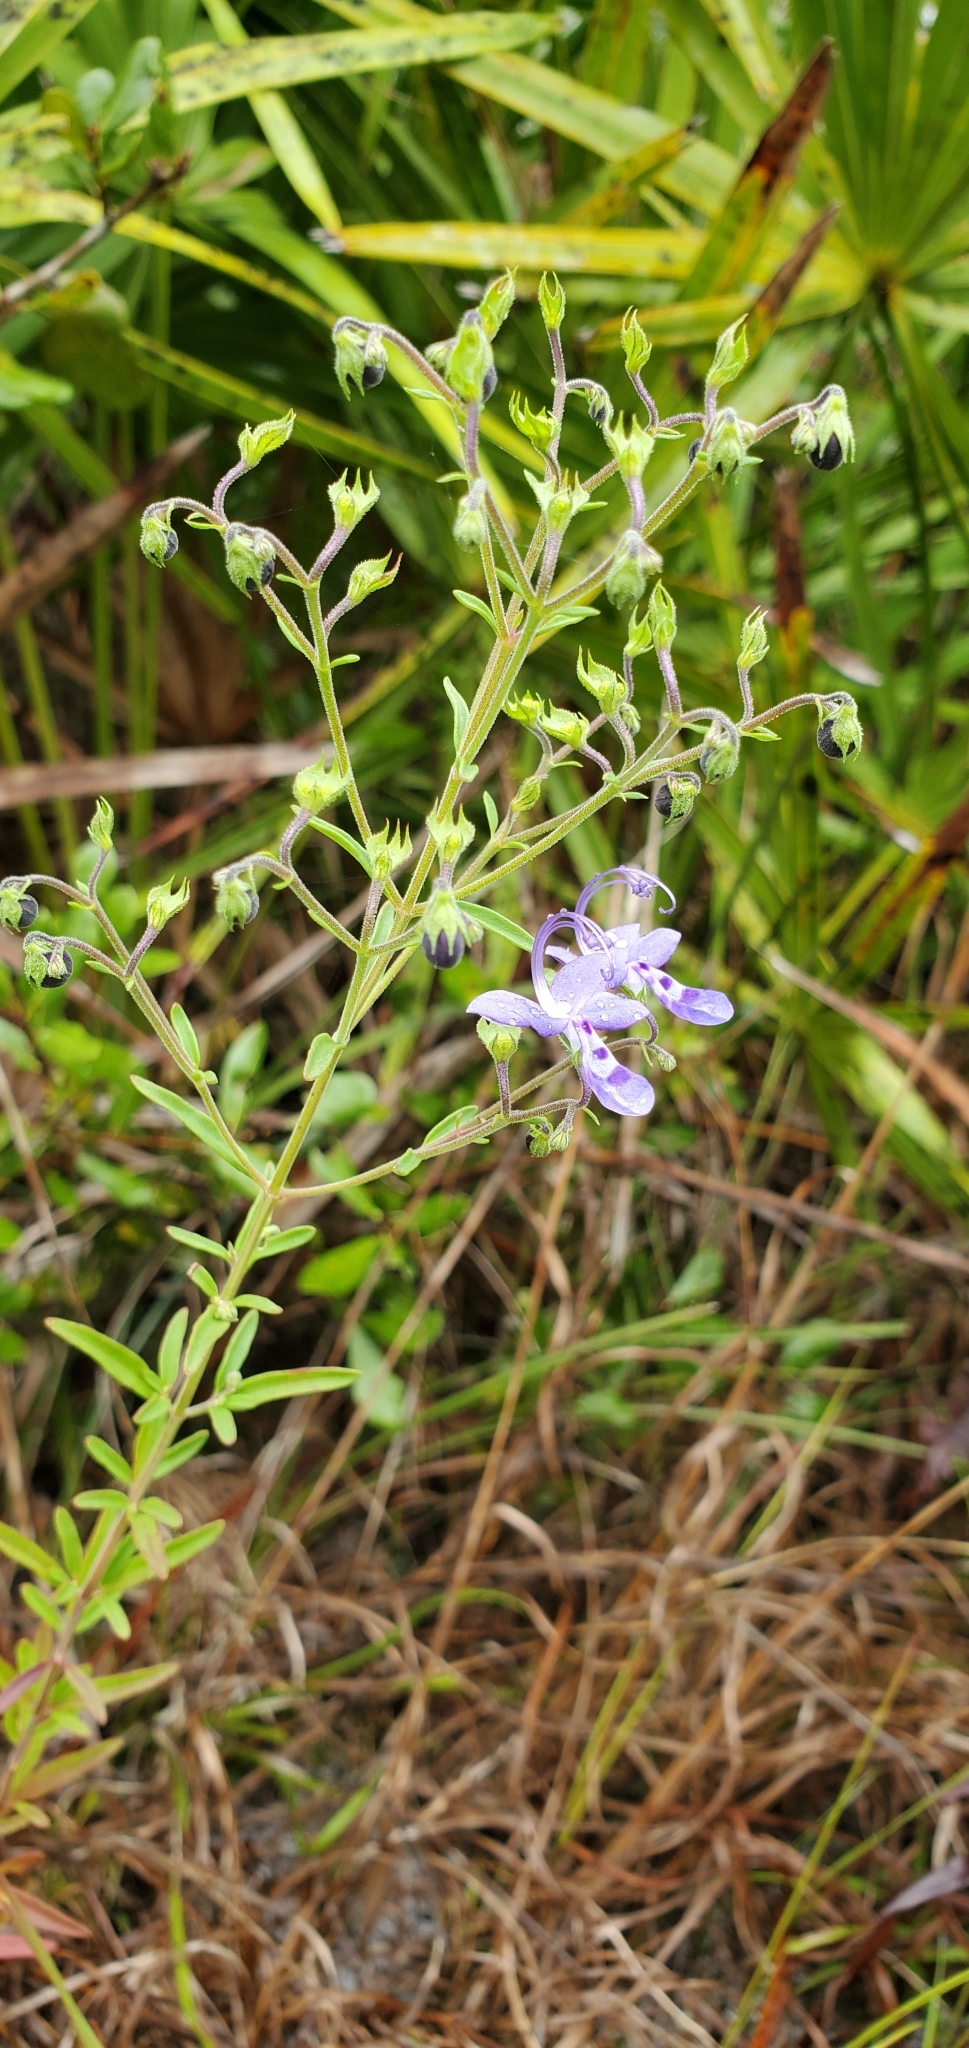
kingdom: Plantae
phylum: Tracheophyta
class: Magnoliopsida
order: Lamiales
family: Lamiaceae
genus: Trichostema
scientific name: Trichostema gracile
